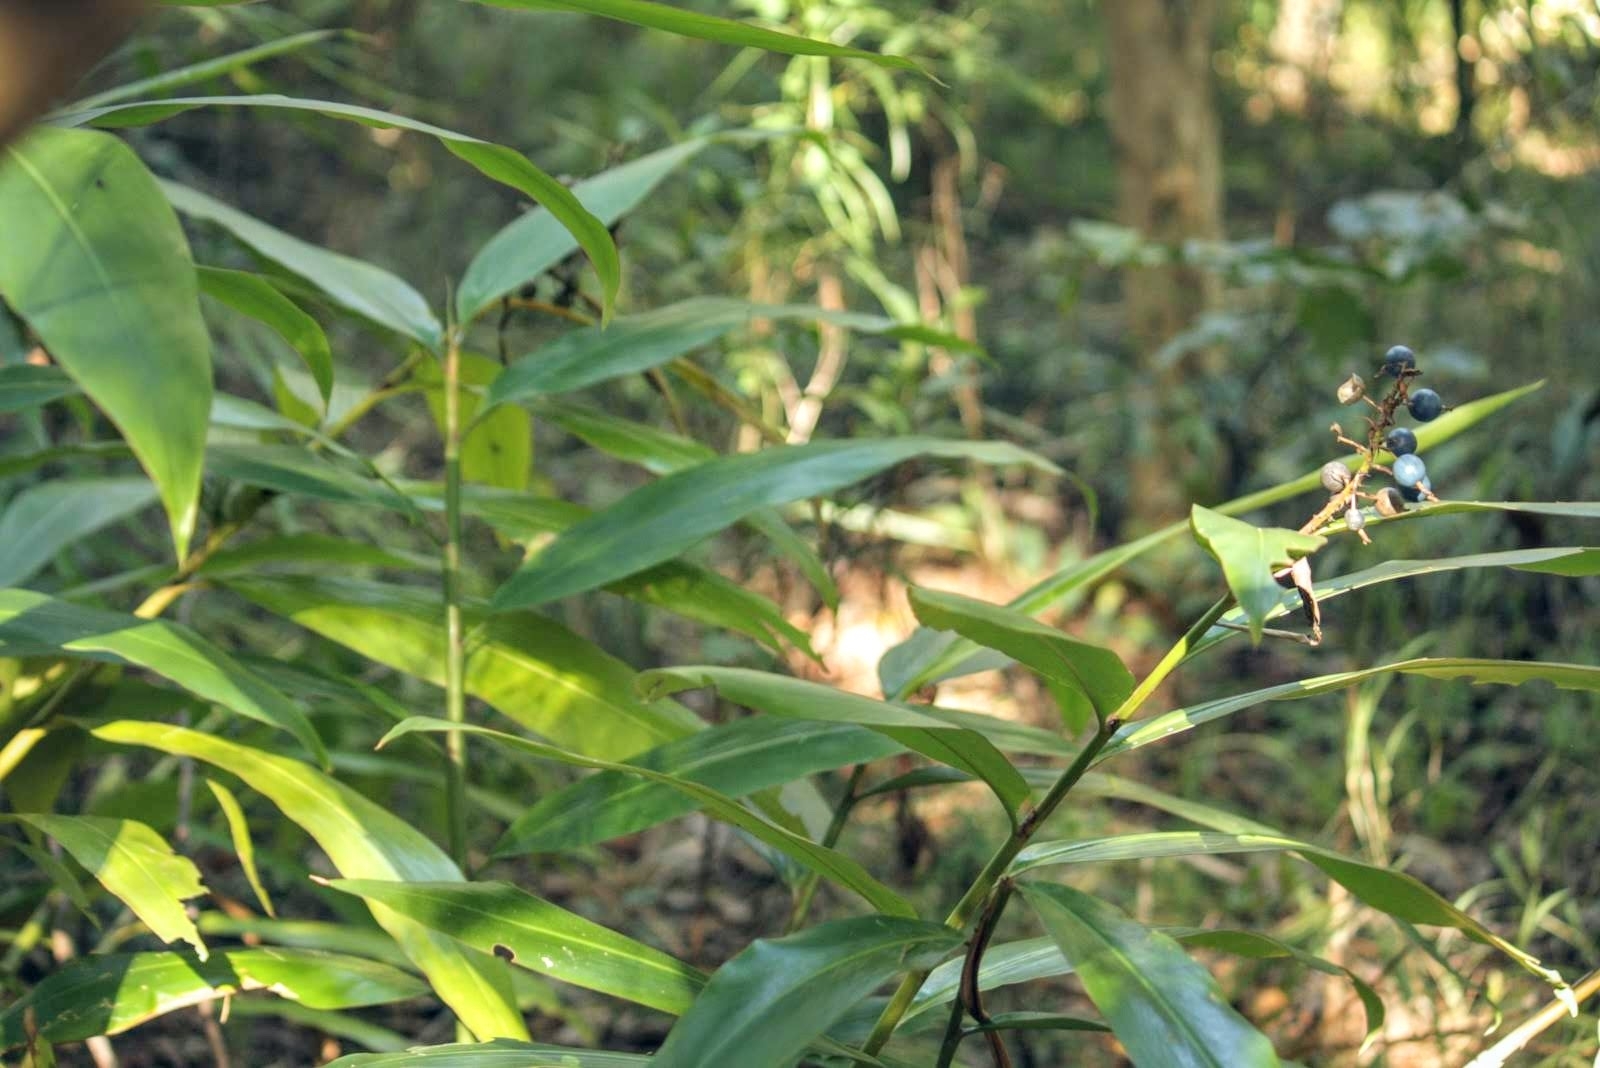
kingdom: Plantae
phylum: Tracheophyta
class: Liliopsida
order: Zingiberales
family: Zingiberaceae
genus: Alpinia
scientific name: Alpinia caerulea
